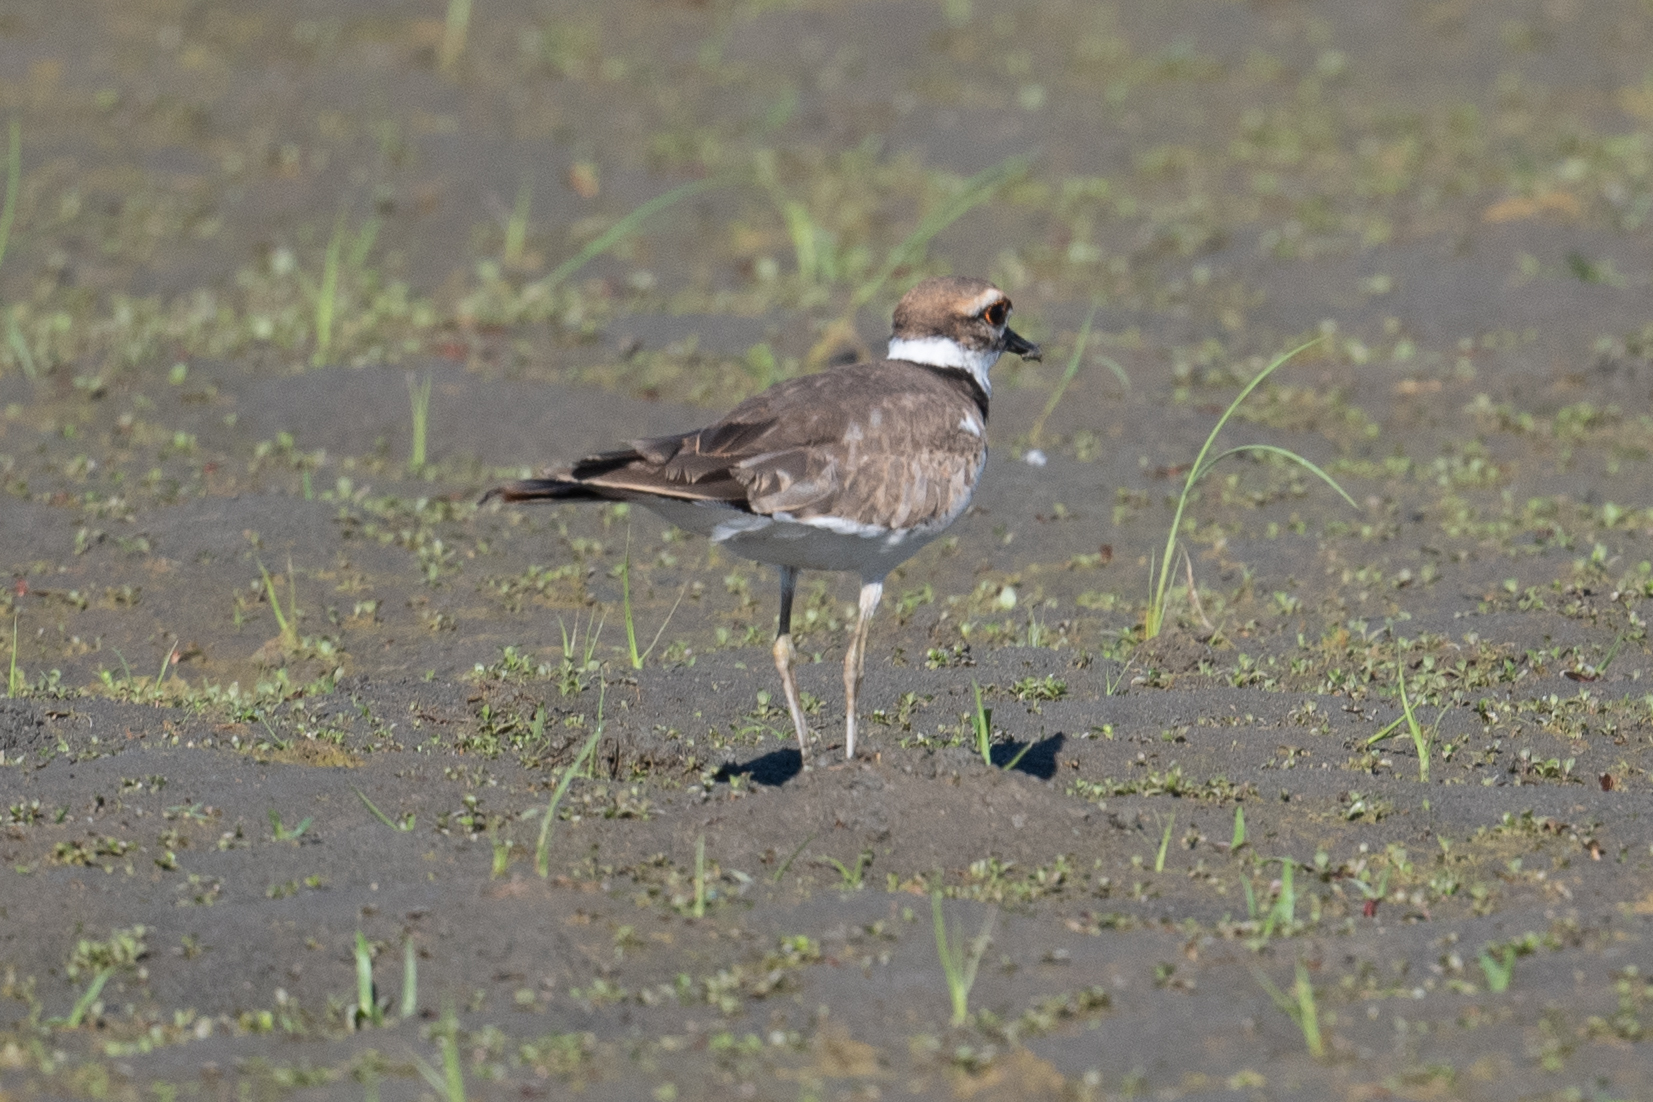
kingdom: Animalia
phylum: Chordata
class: Aves
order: Charadriiformes
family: Charadriidae
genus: Charadrius
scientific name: Charadrius vociferus
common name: Killdeer
